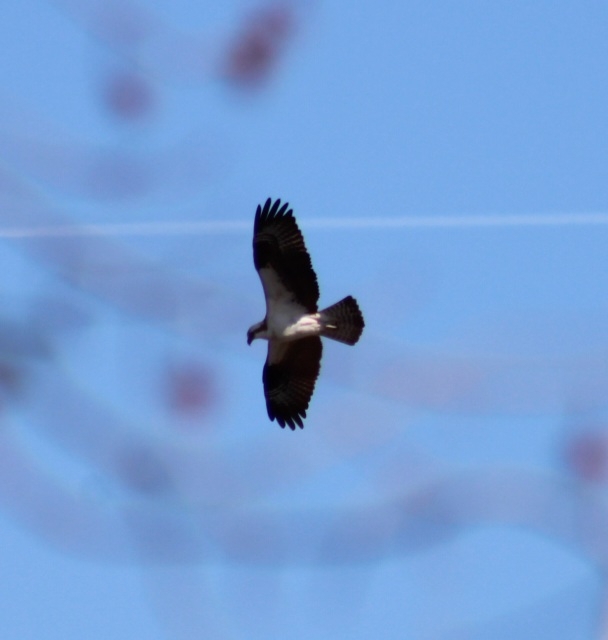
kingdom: Animalia
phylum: Chordata
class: Aves
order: Accipitriformes
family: Pandionidae
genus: Pandion
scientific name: Pandion haliaetus
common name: Osprey
